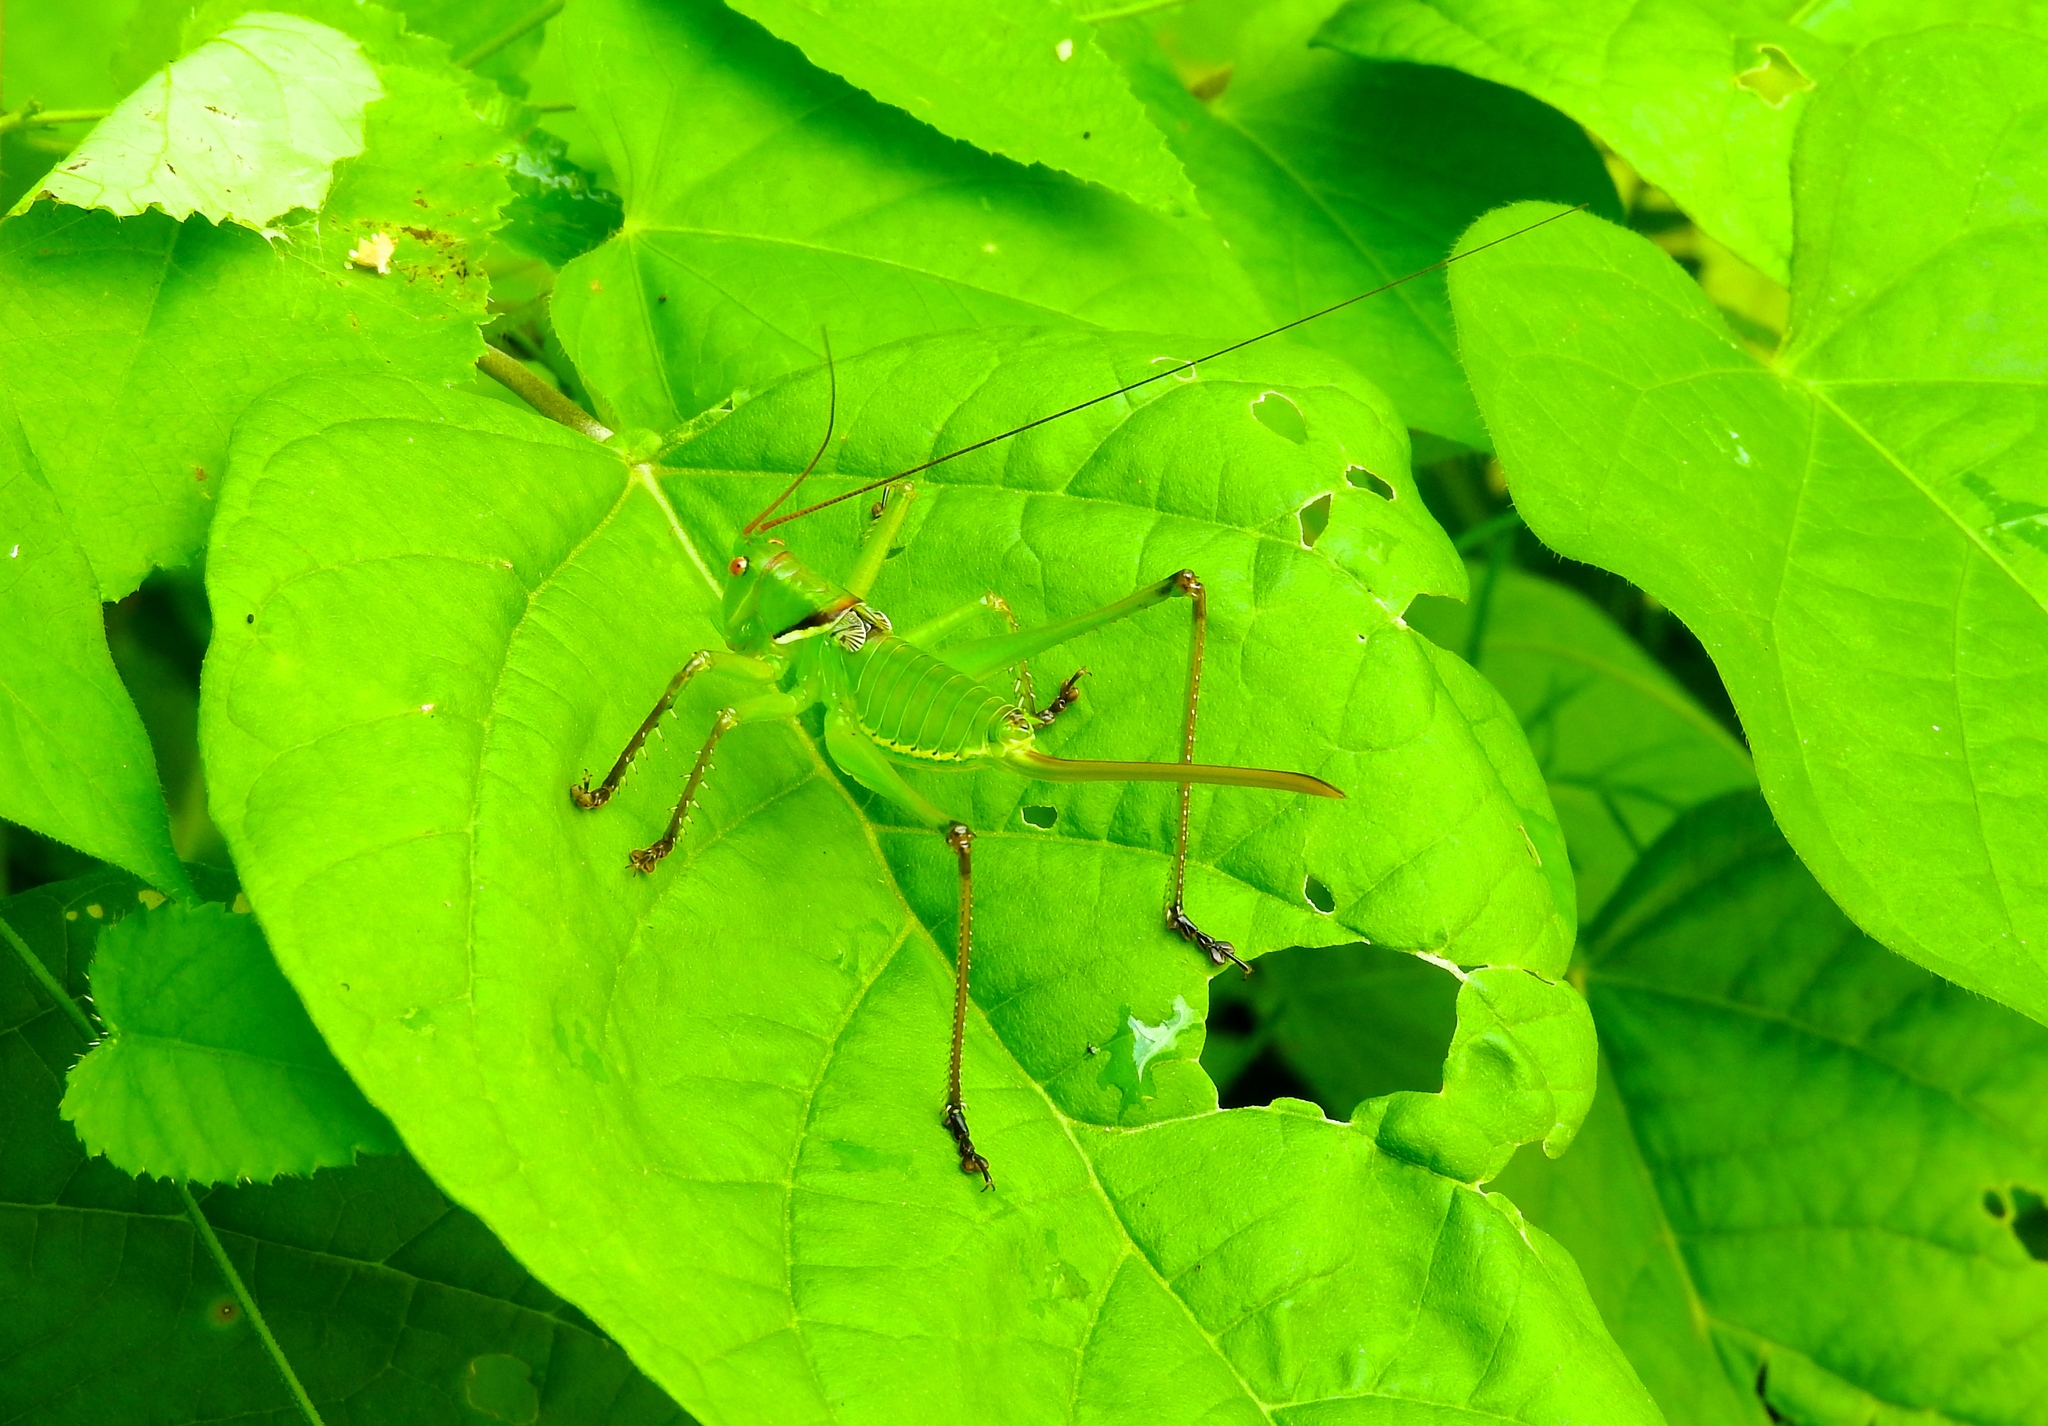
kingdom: Animalia
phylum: Arthropoda
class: Insecta
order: Orthoptera
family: Tettigoniidae
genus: Neobarrettia
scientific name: Neobarrettia sinaloae
